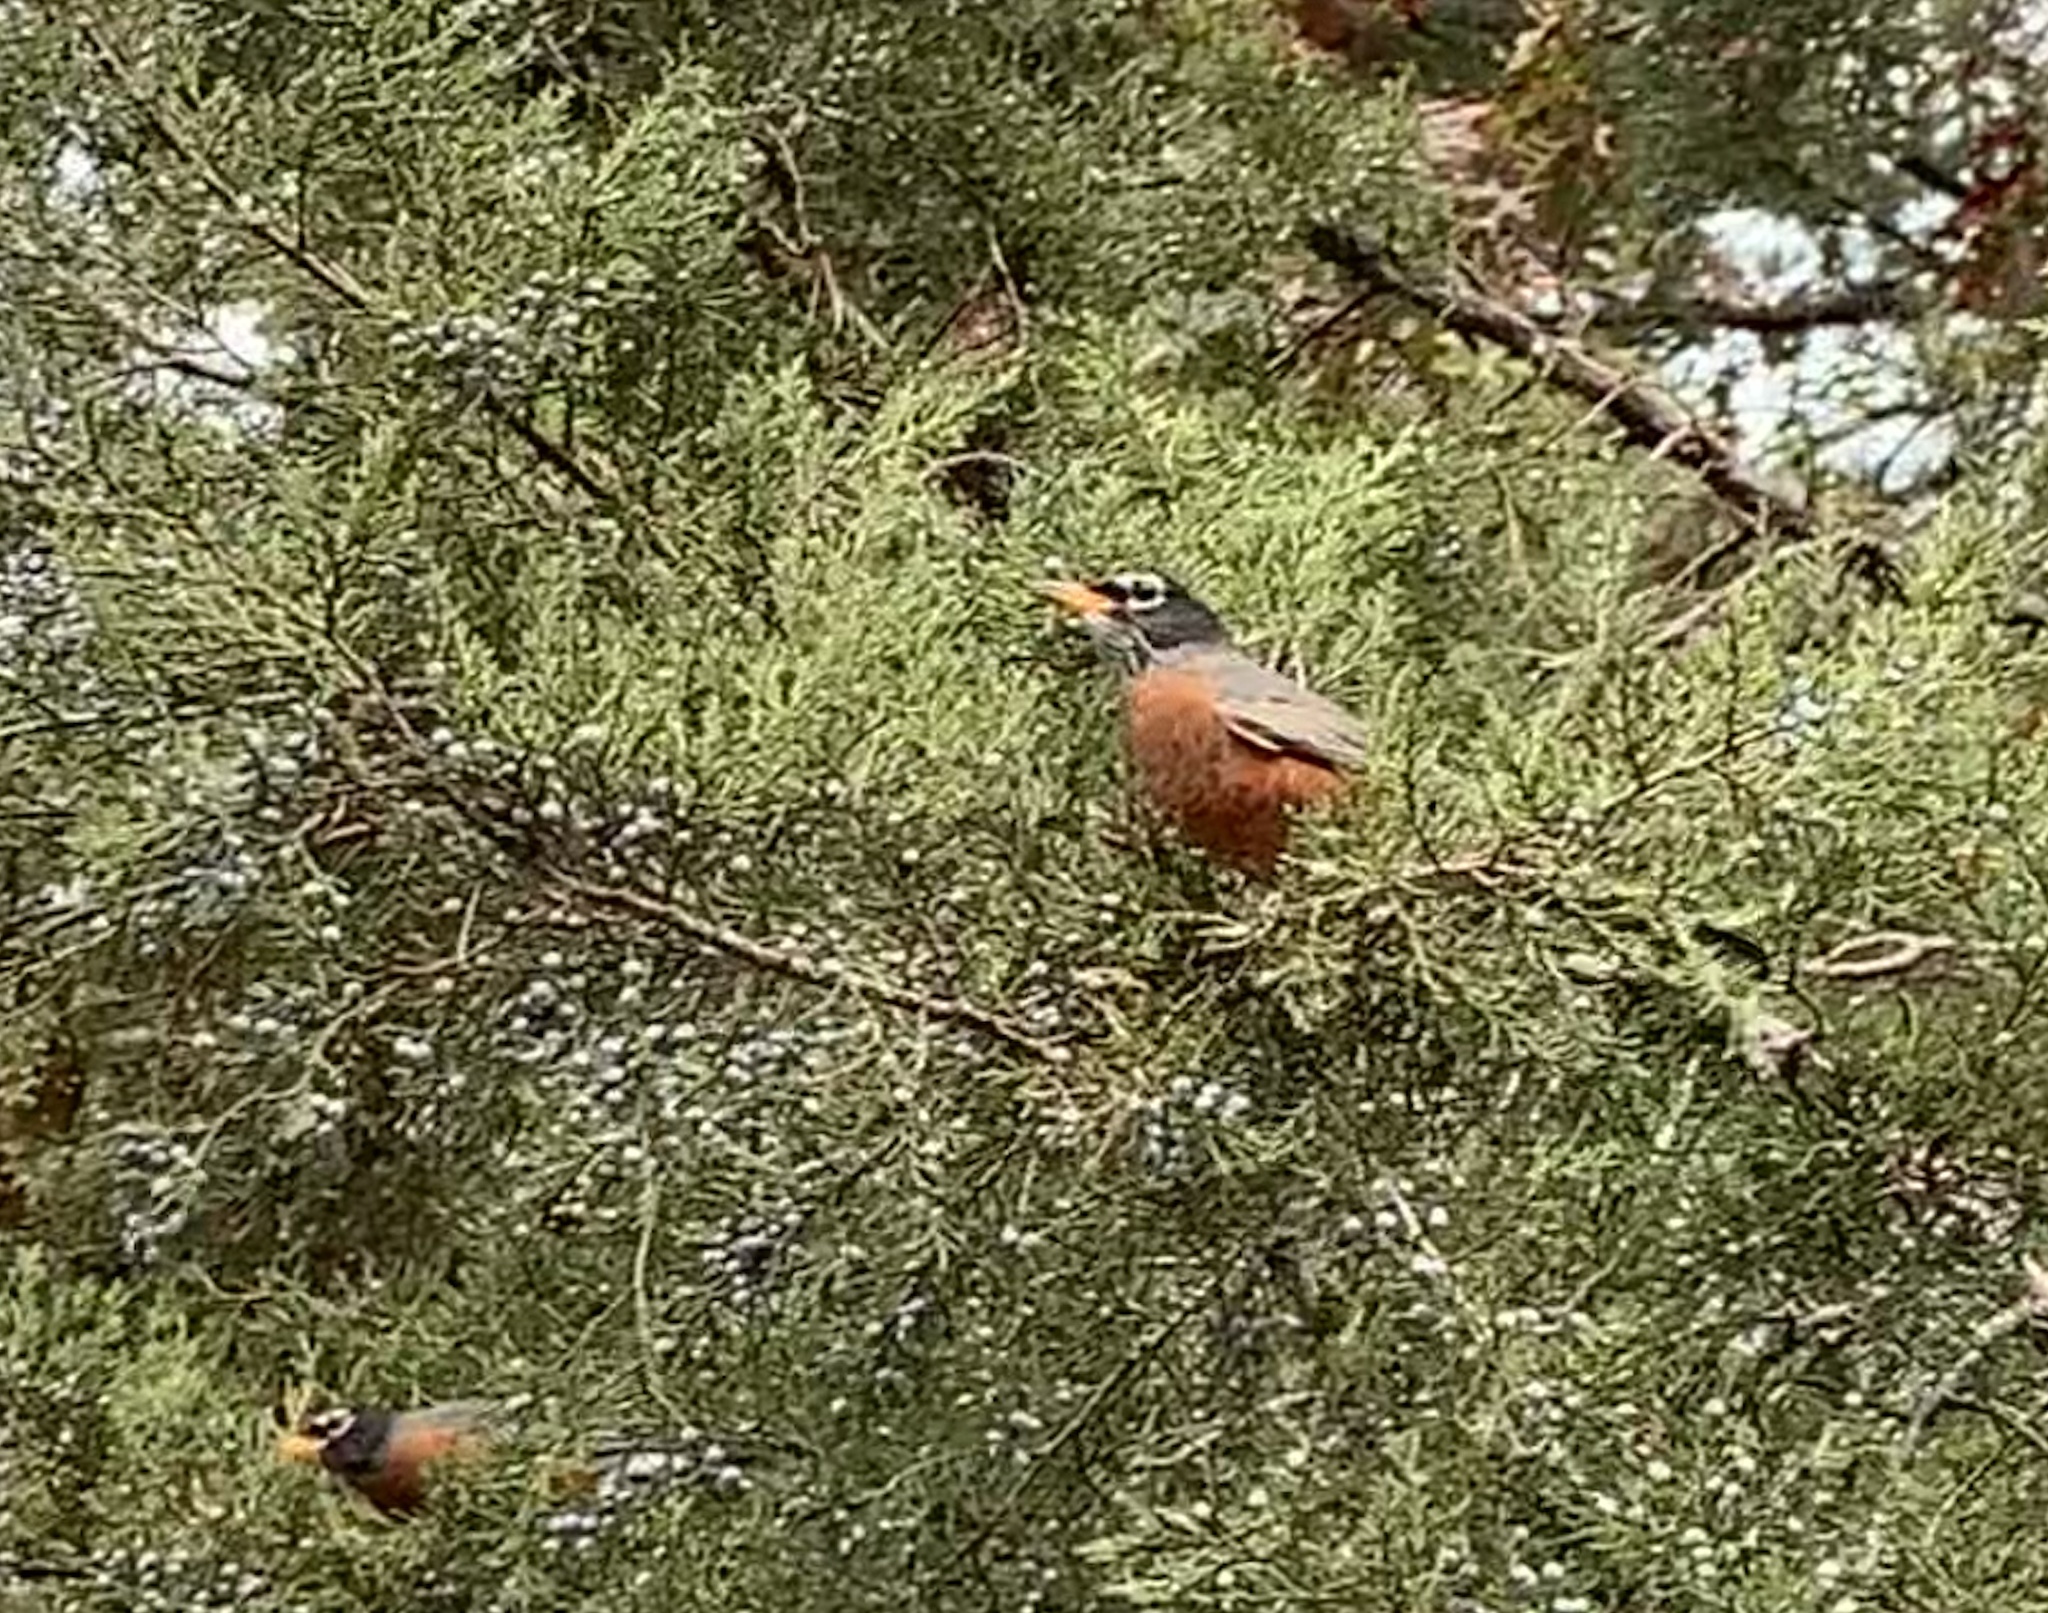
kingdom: Animalia
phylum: Chordata
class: Aves
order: Passeriformes
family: Turdidae
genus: Turdus
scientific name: Turdus migratorius
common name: American robin
